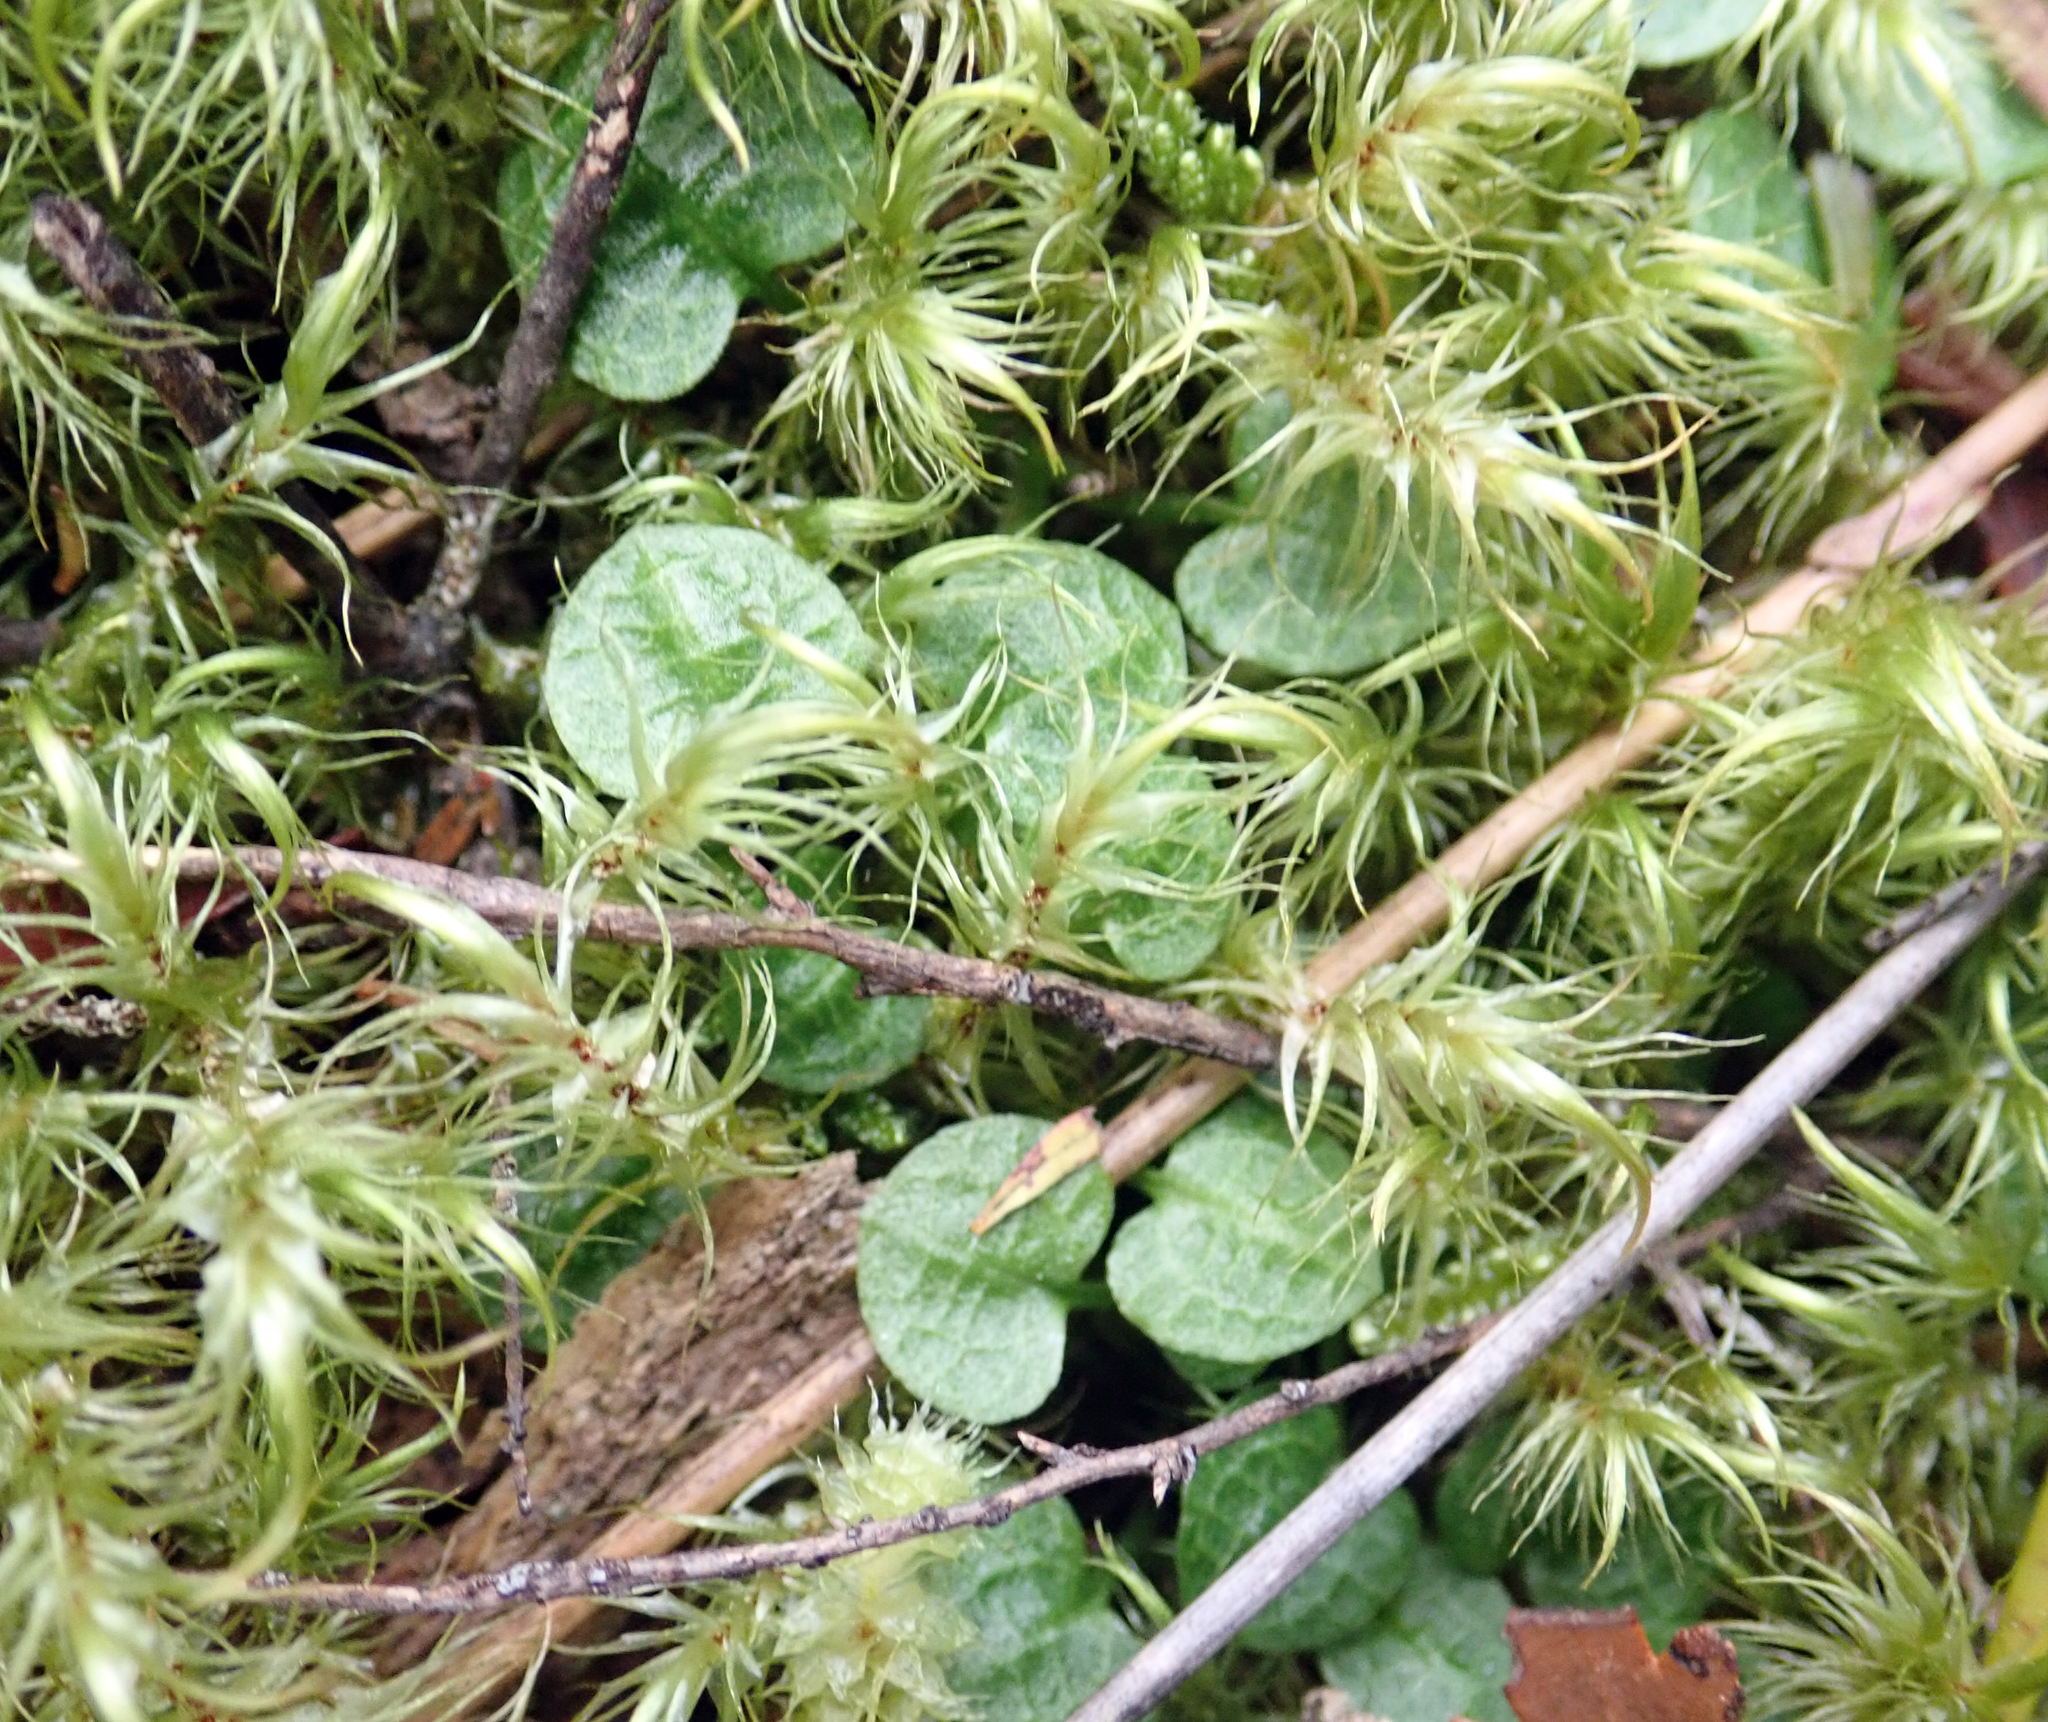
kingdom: Plantae
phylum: Tracheophyta
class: Liliopsida
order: Asparagales
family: Orchidaceae
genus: Pterostylis
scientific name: Pterostylis trullifolia
